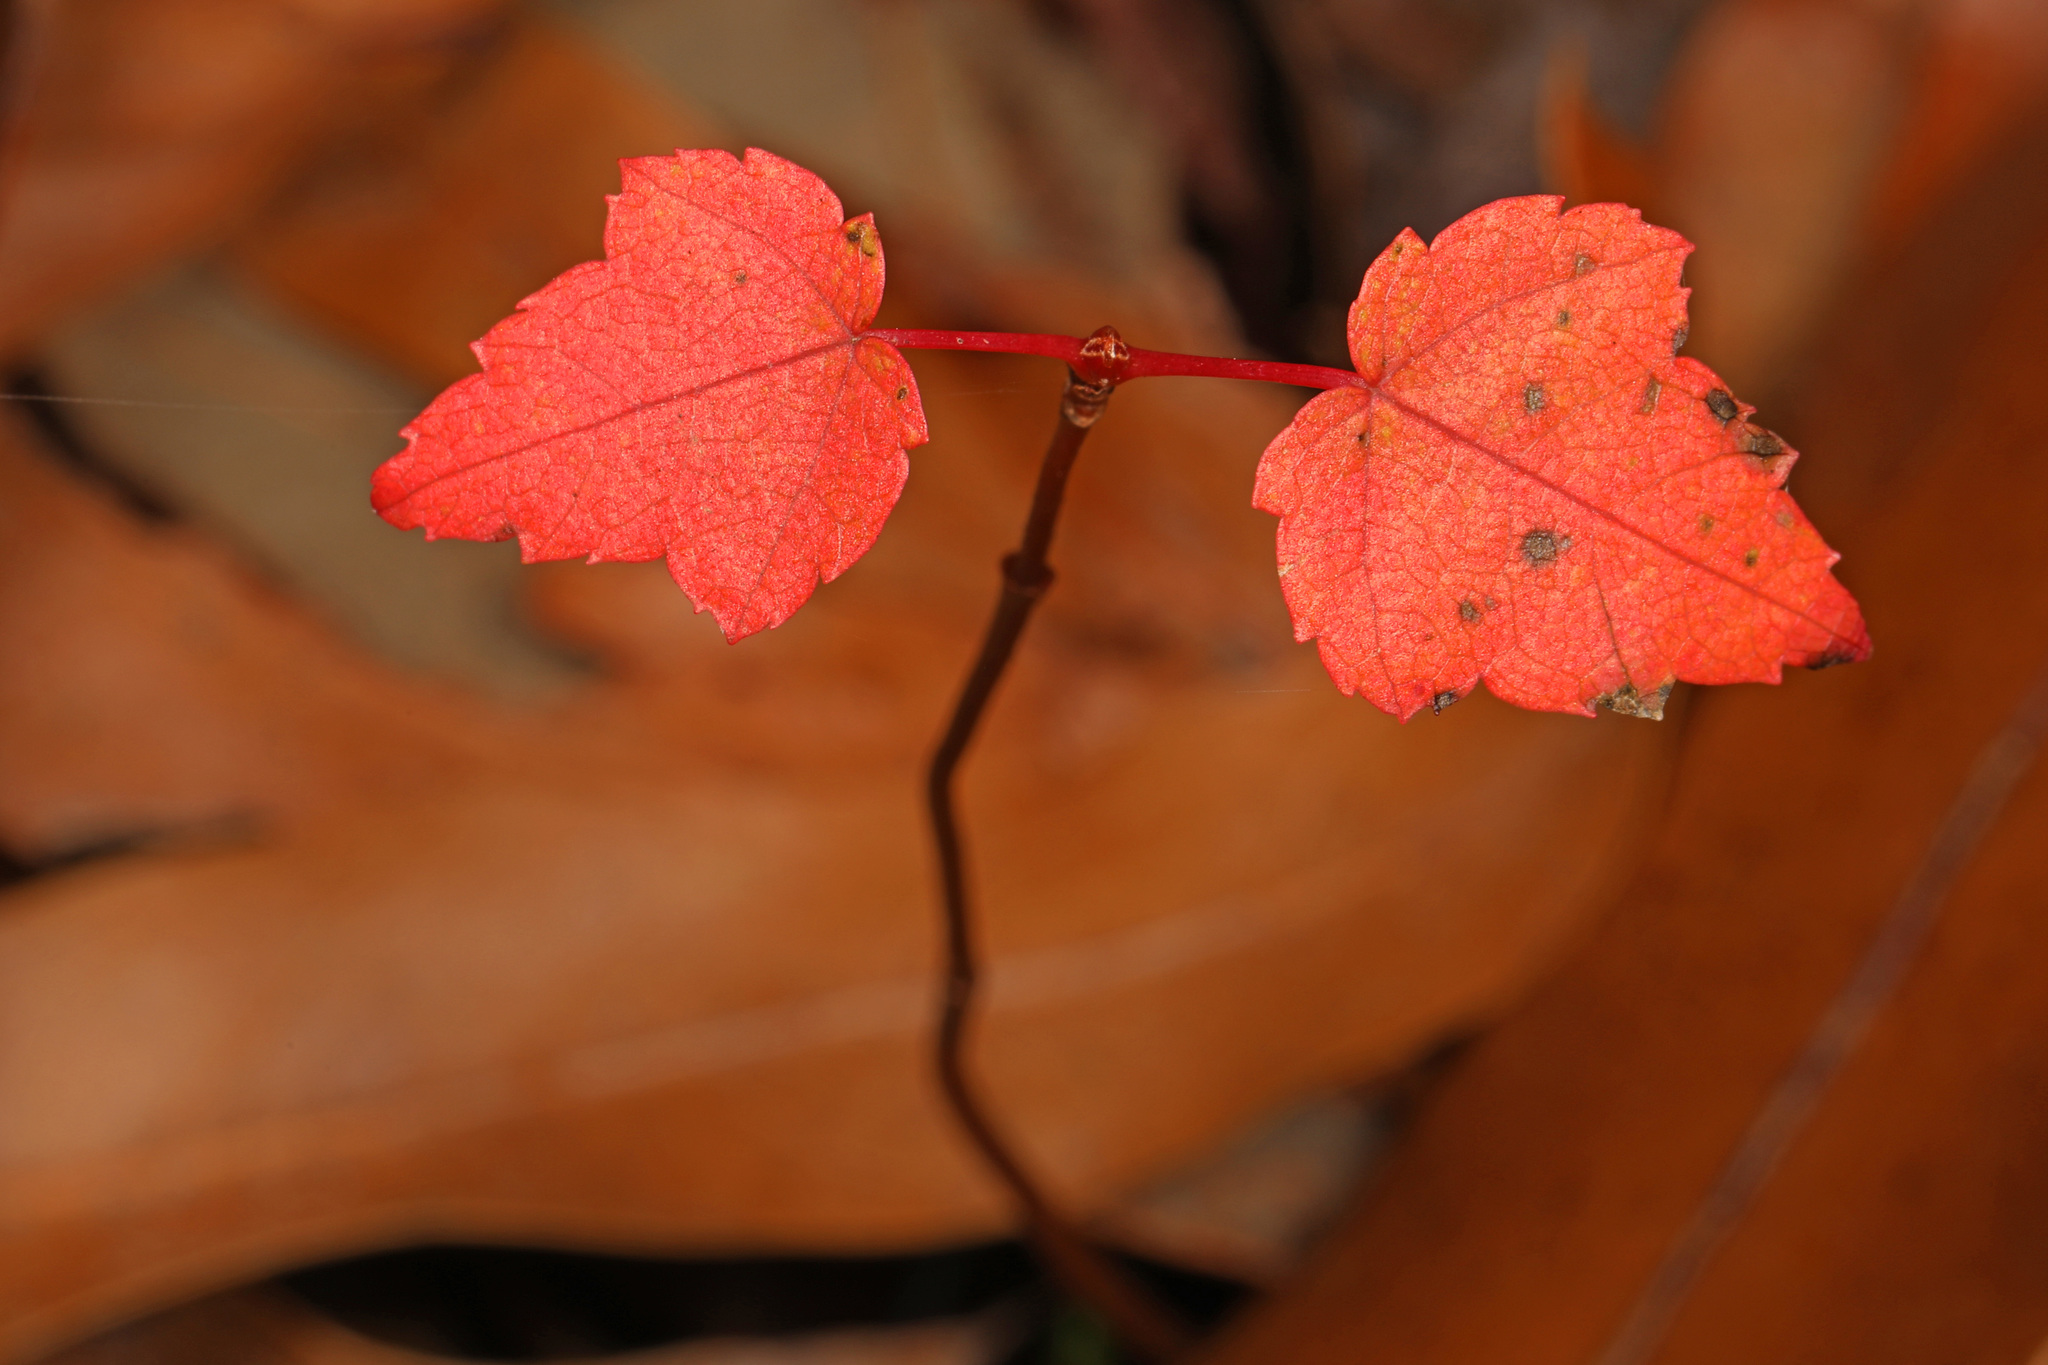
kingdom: Plantae
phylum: Tracheophyta
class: Magnoliopsida
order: Sapindales
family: Sapindaceae
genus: Acer
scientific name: Acer rubrum
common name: Red maple
